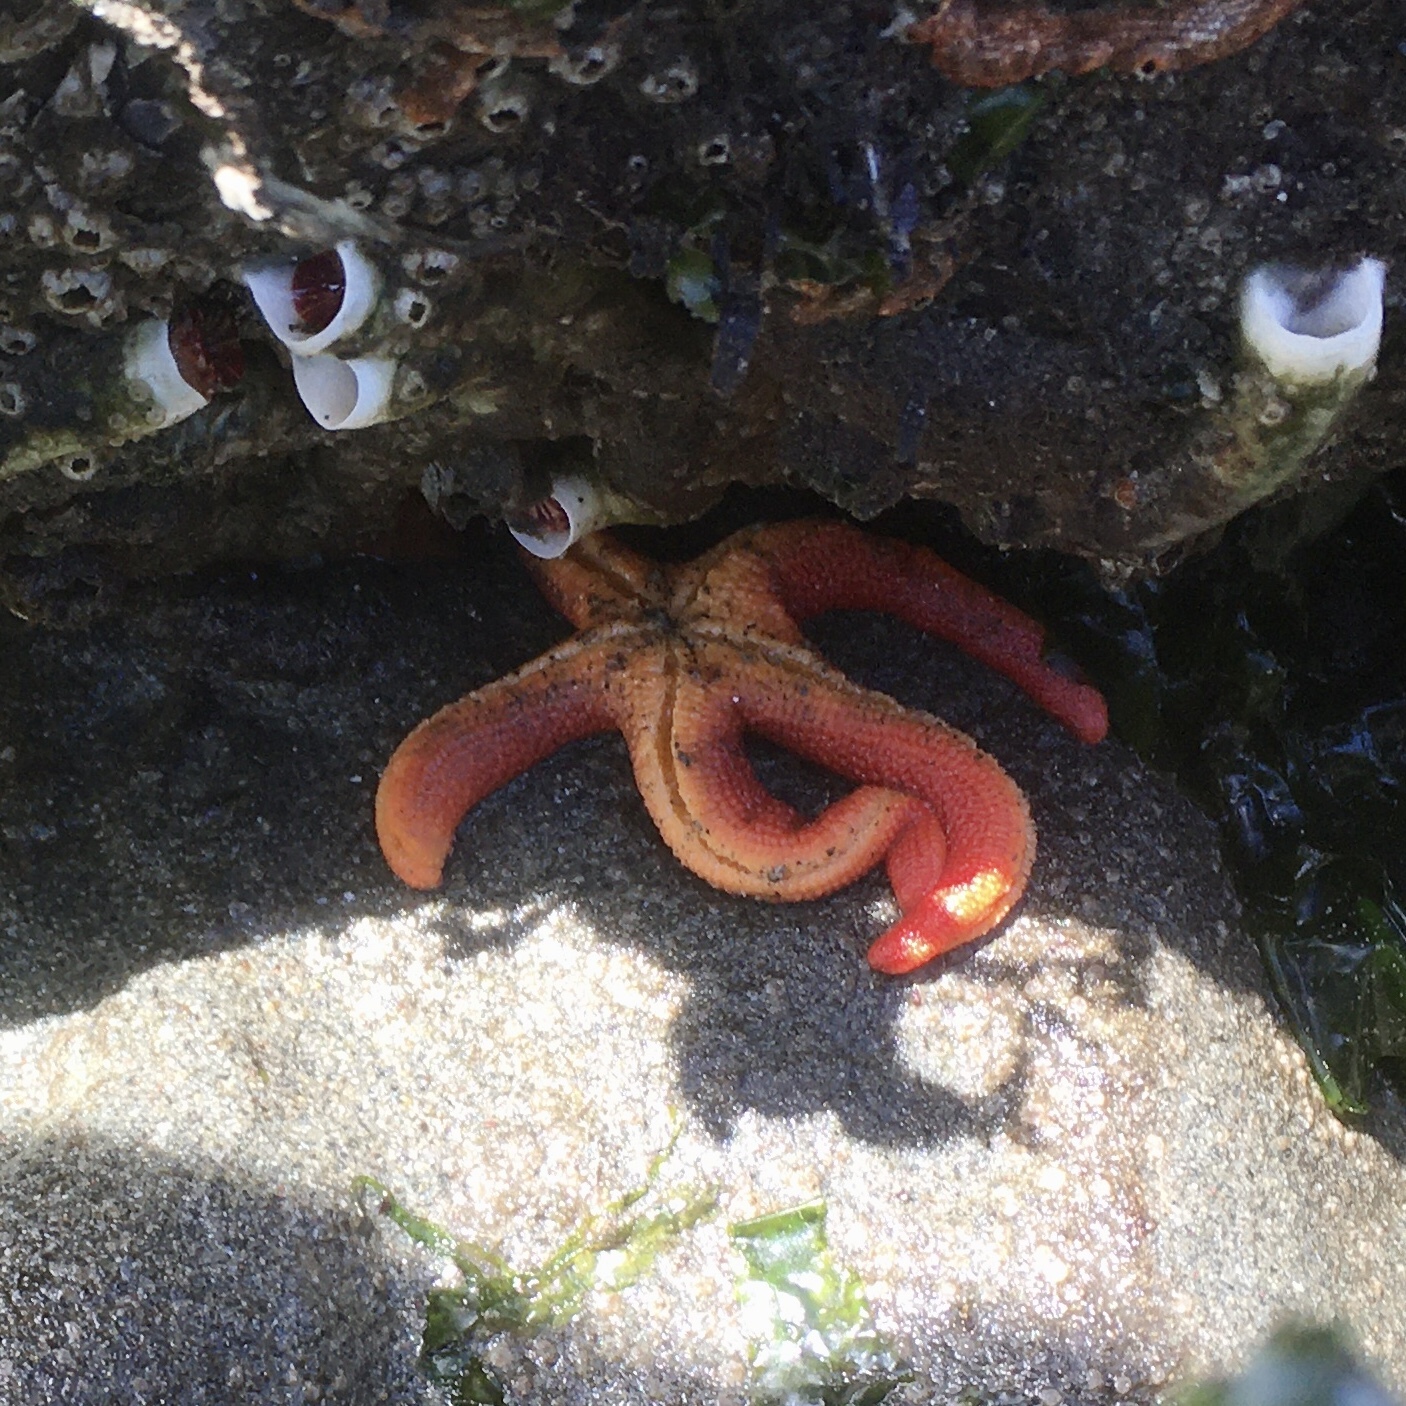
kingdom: Animalia
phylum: Echinodermata
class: Asteroidea
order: Spinulosida
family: Echinasteridae
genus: Henricia
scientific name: Henricia leviuscula
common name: Pacific blood star
